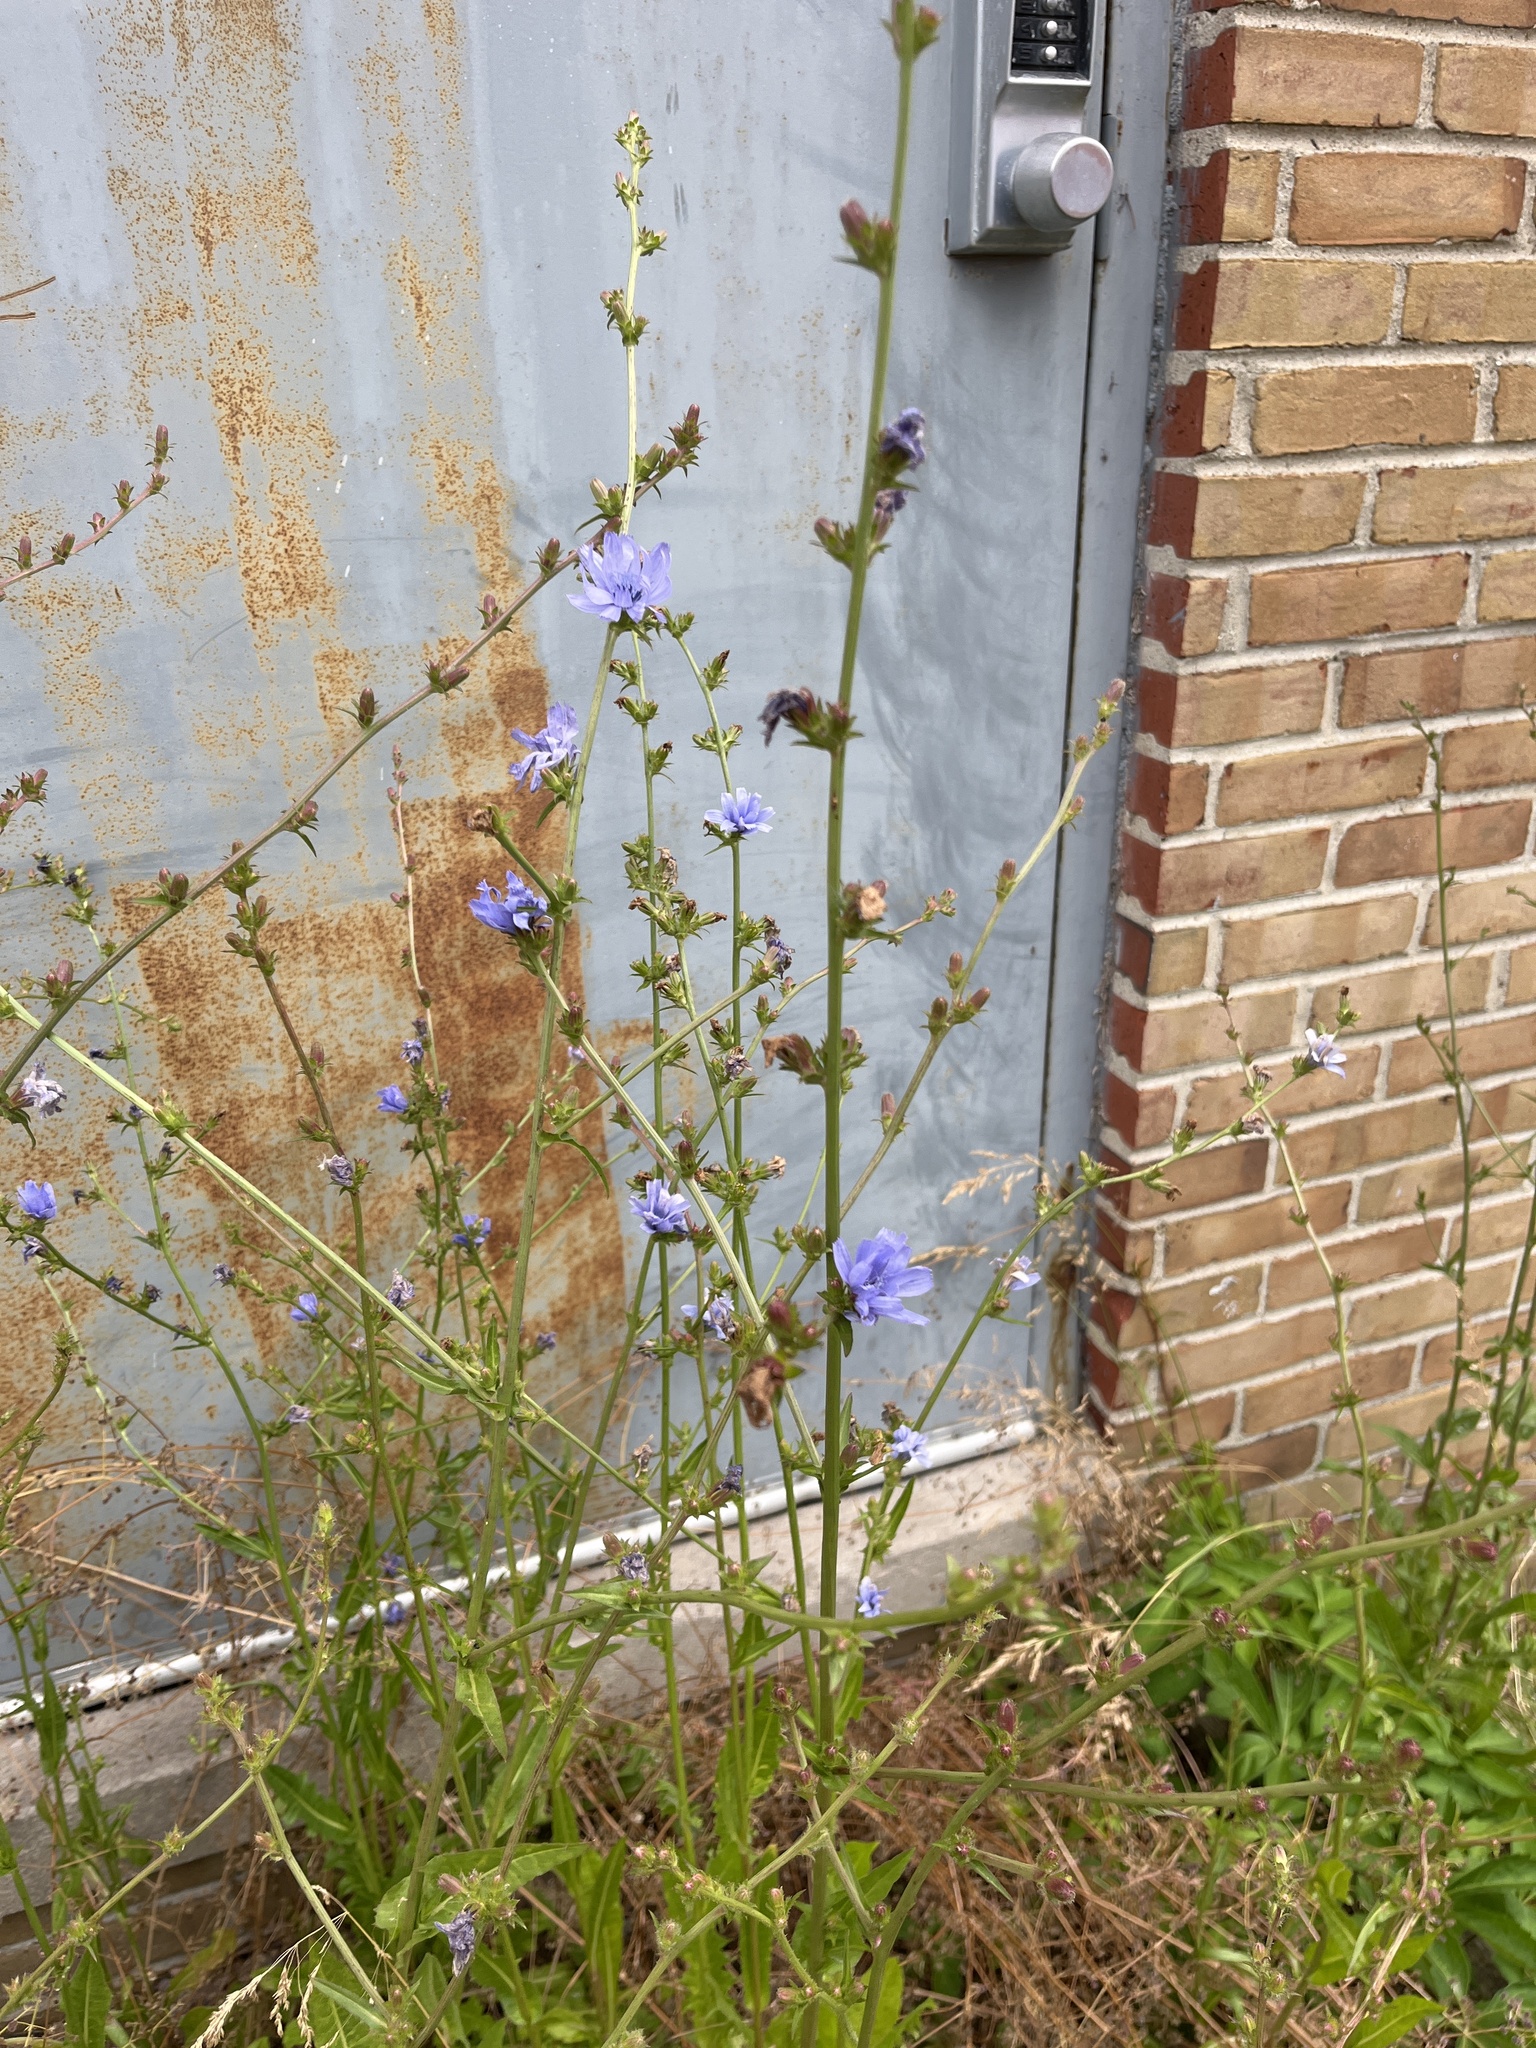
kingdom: Plantae
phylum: Tracheophyta
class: Magnoliopsida
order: Asterales
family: Asteraceae
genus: Cichorium
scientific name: Cichorium intybus
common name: Chicory
